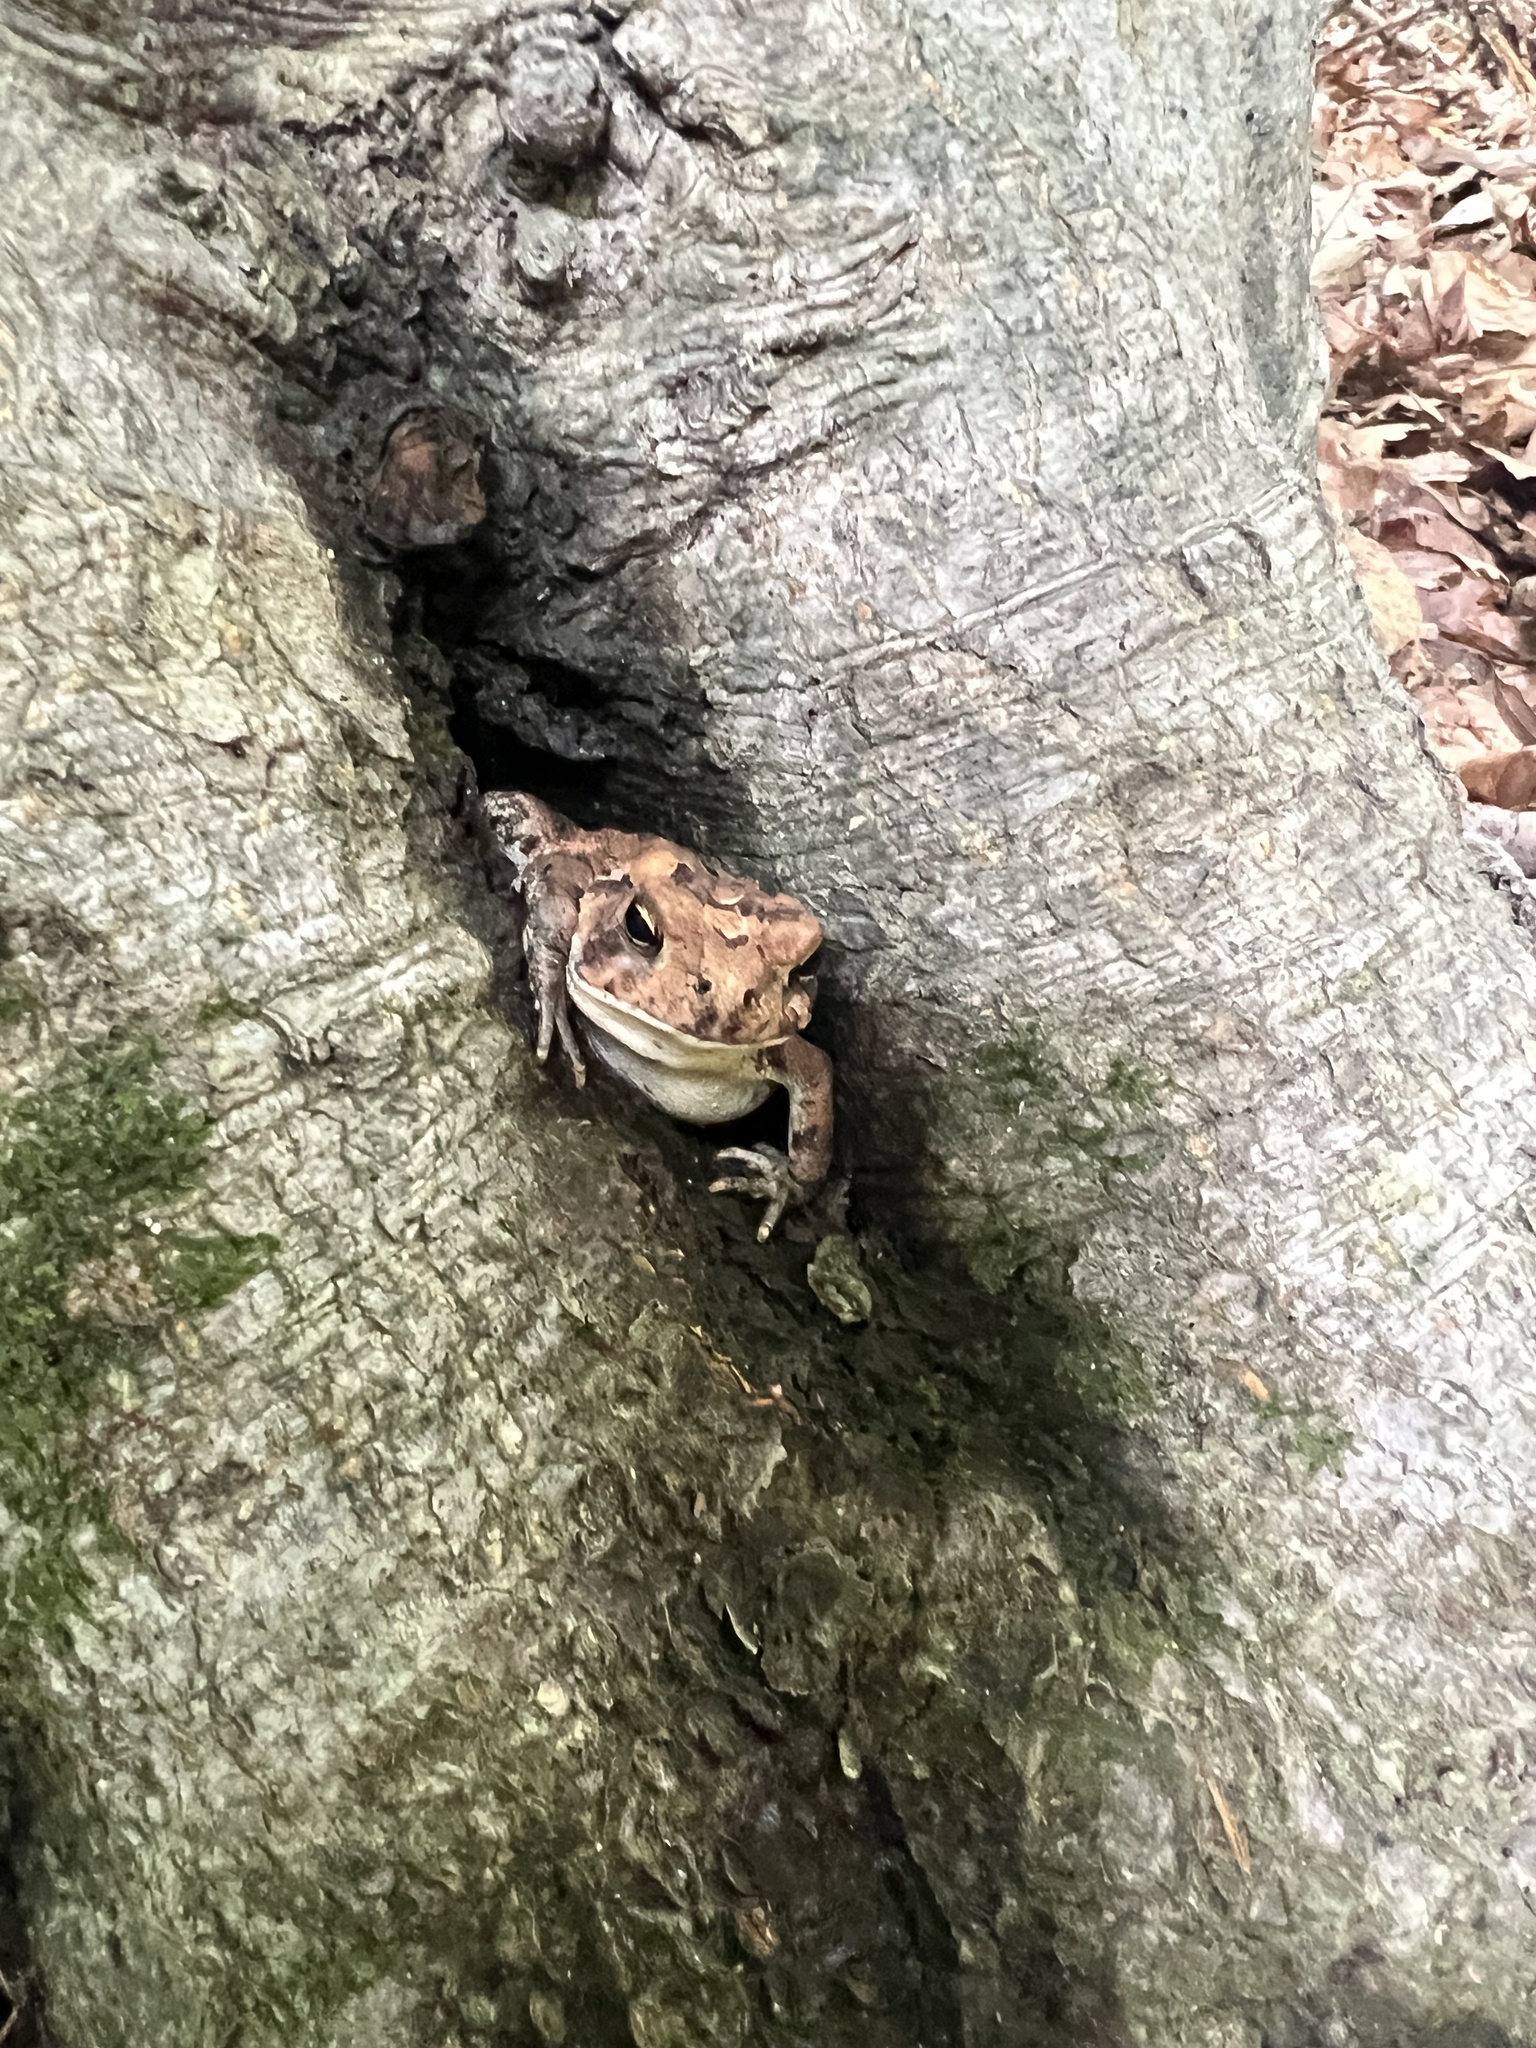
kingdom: Animalia
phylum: Chordata
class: Amphibia
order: Anura
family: Bufonidae
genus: Anaxyrus
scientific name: Anaxyrus americanus
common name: American toad
